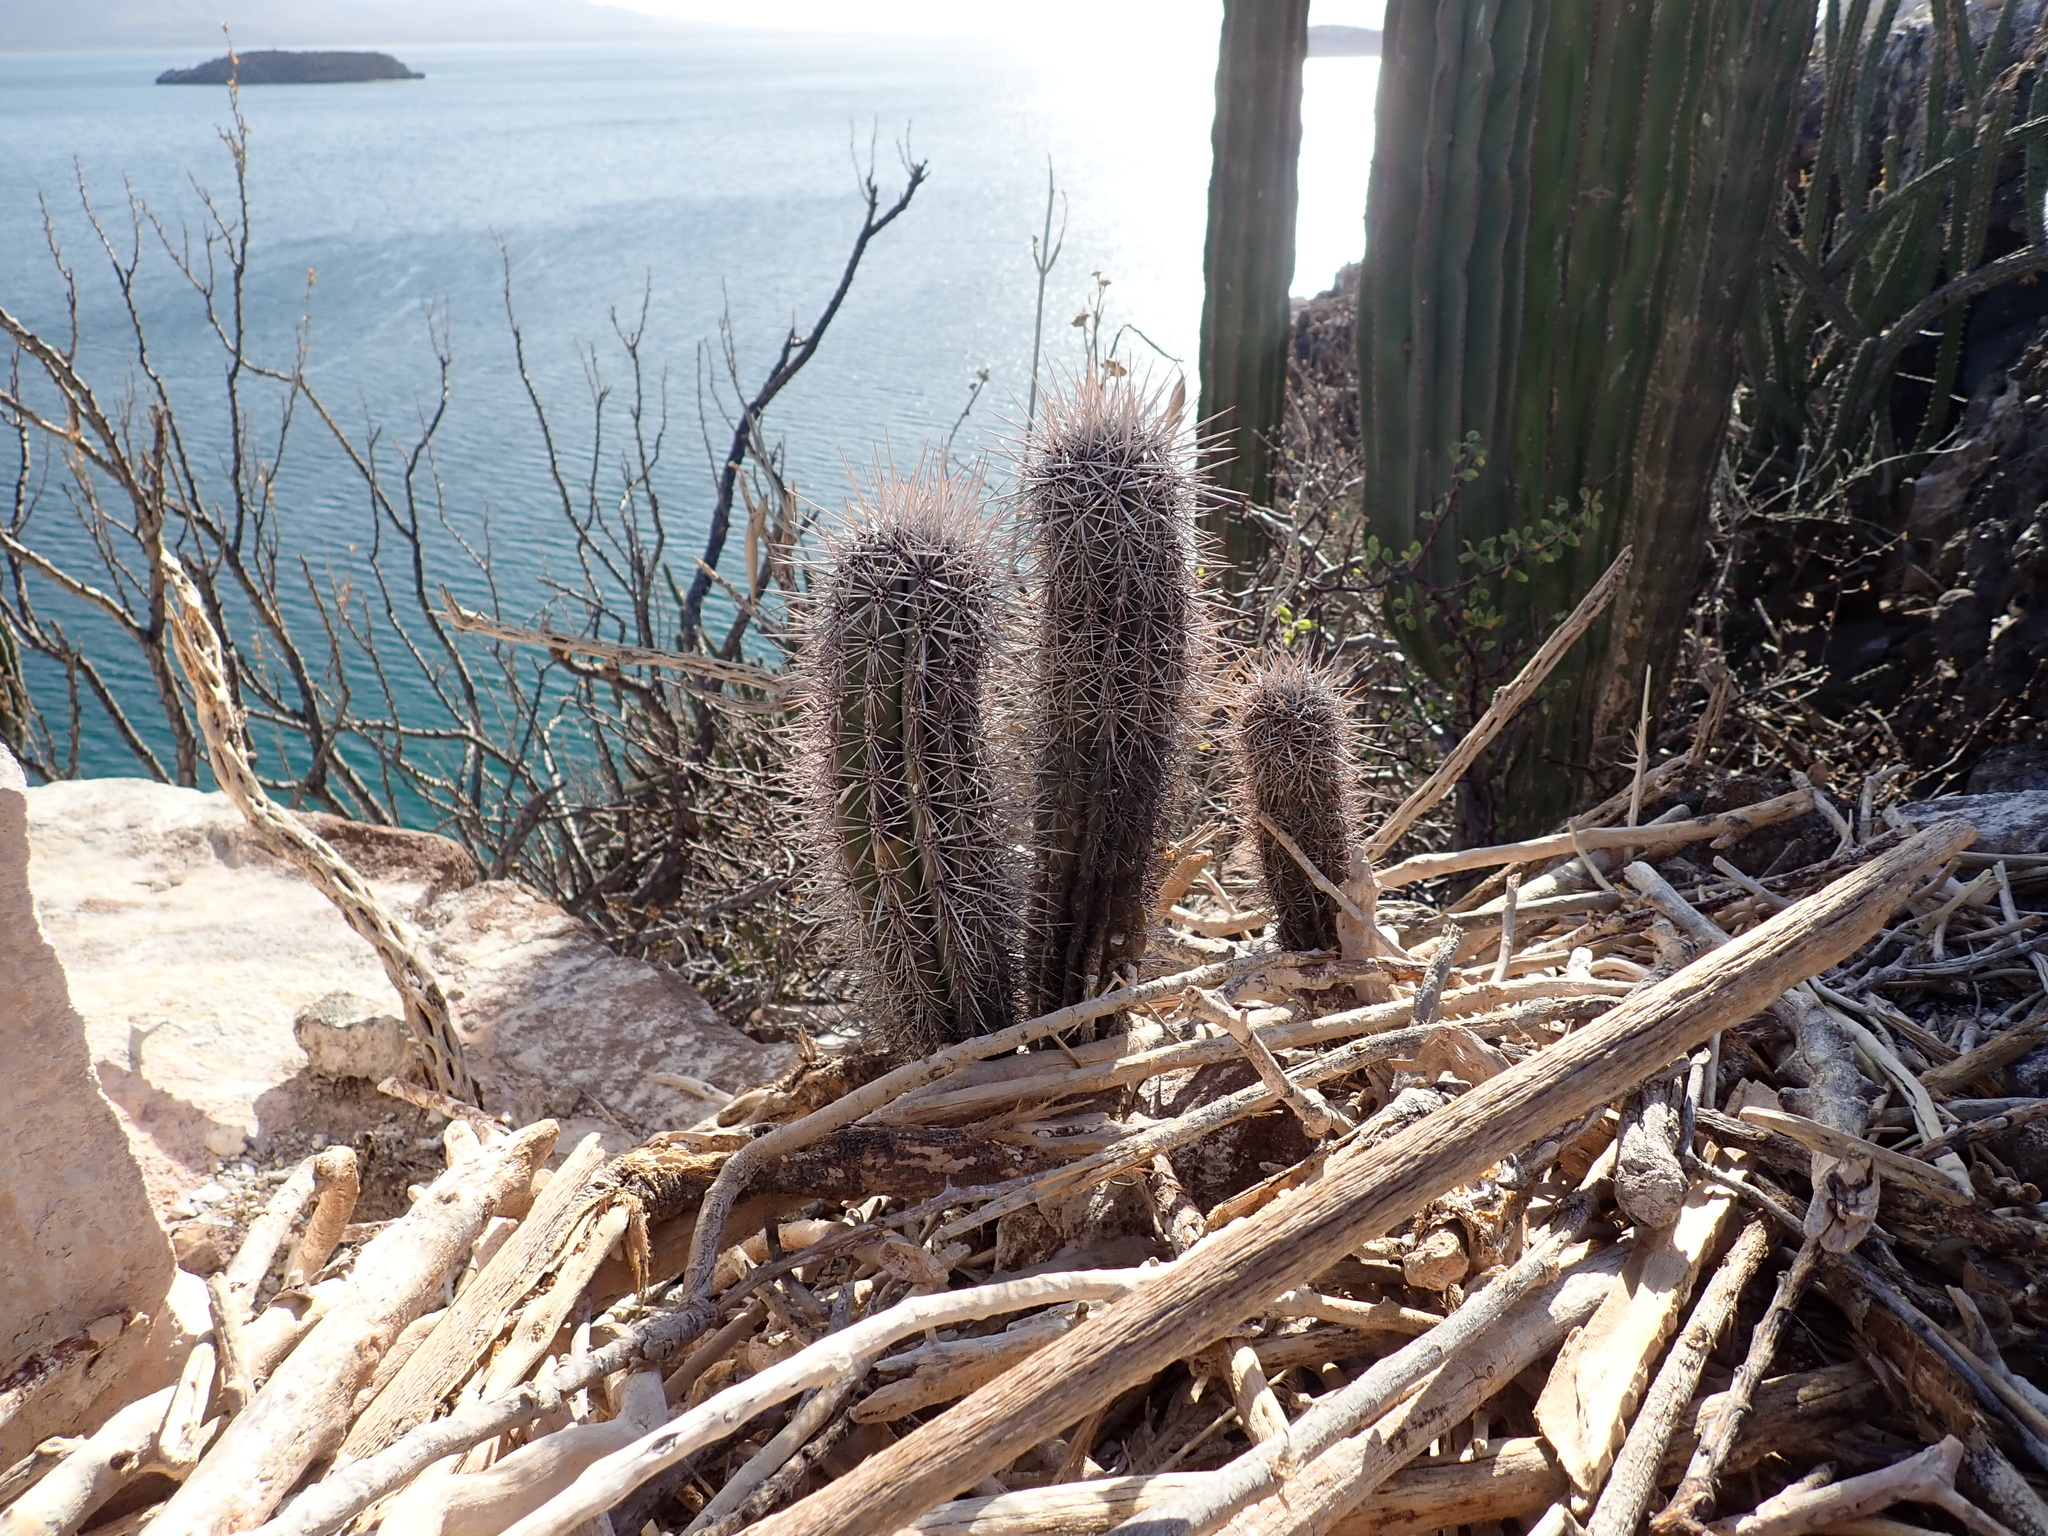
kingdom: Plantae
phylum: Tracheophyta
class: Magnoliopsida
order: Caryophyllales
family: Cactaceae
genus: Pachycereus
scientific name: Pachycereus pringlei
